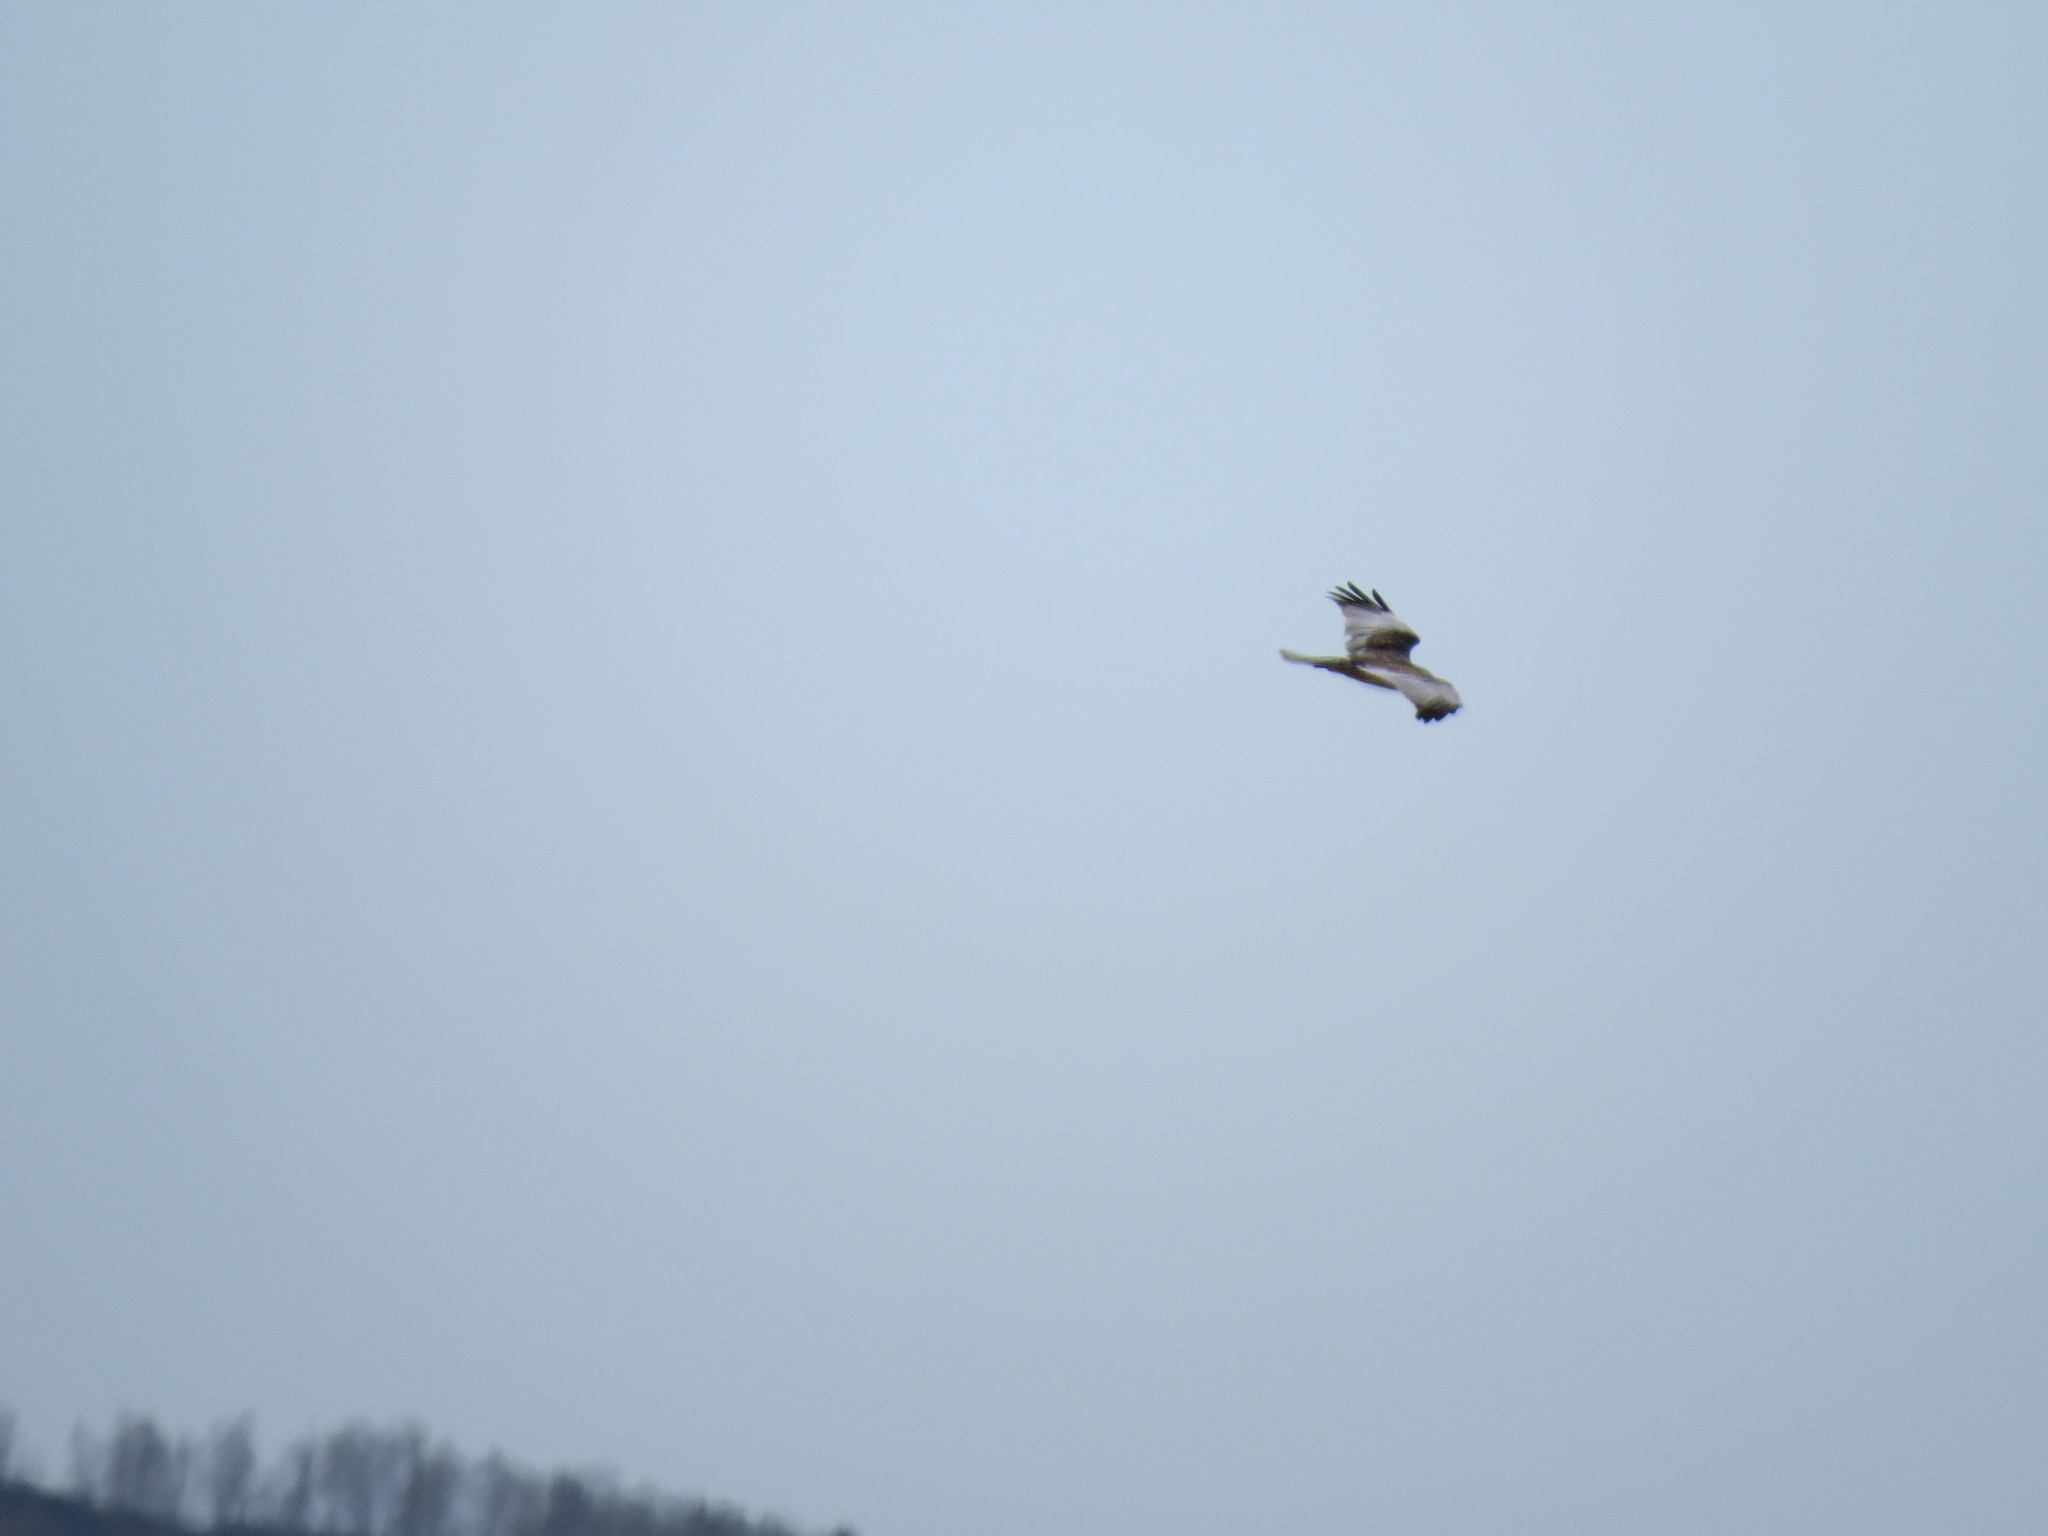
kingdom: Animalia
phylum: Chordata
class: Aves
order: Accipitriformes
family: Accipitridae
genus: Circus
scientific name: Circus aeruginosus
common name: Western marsh harrier
